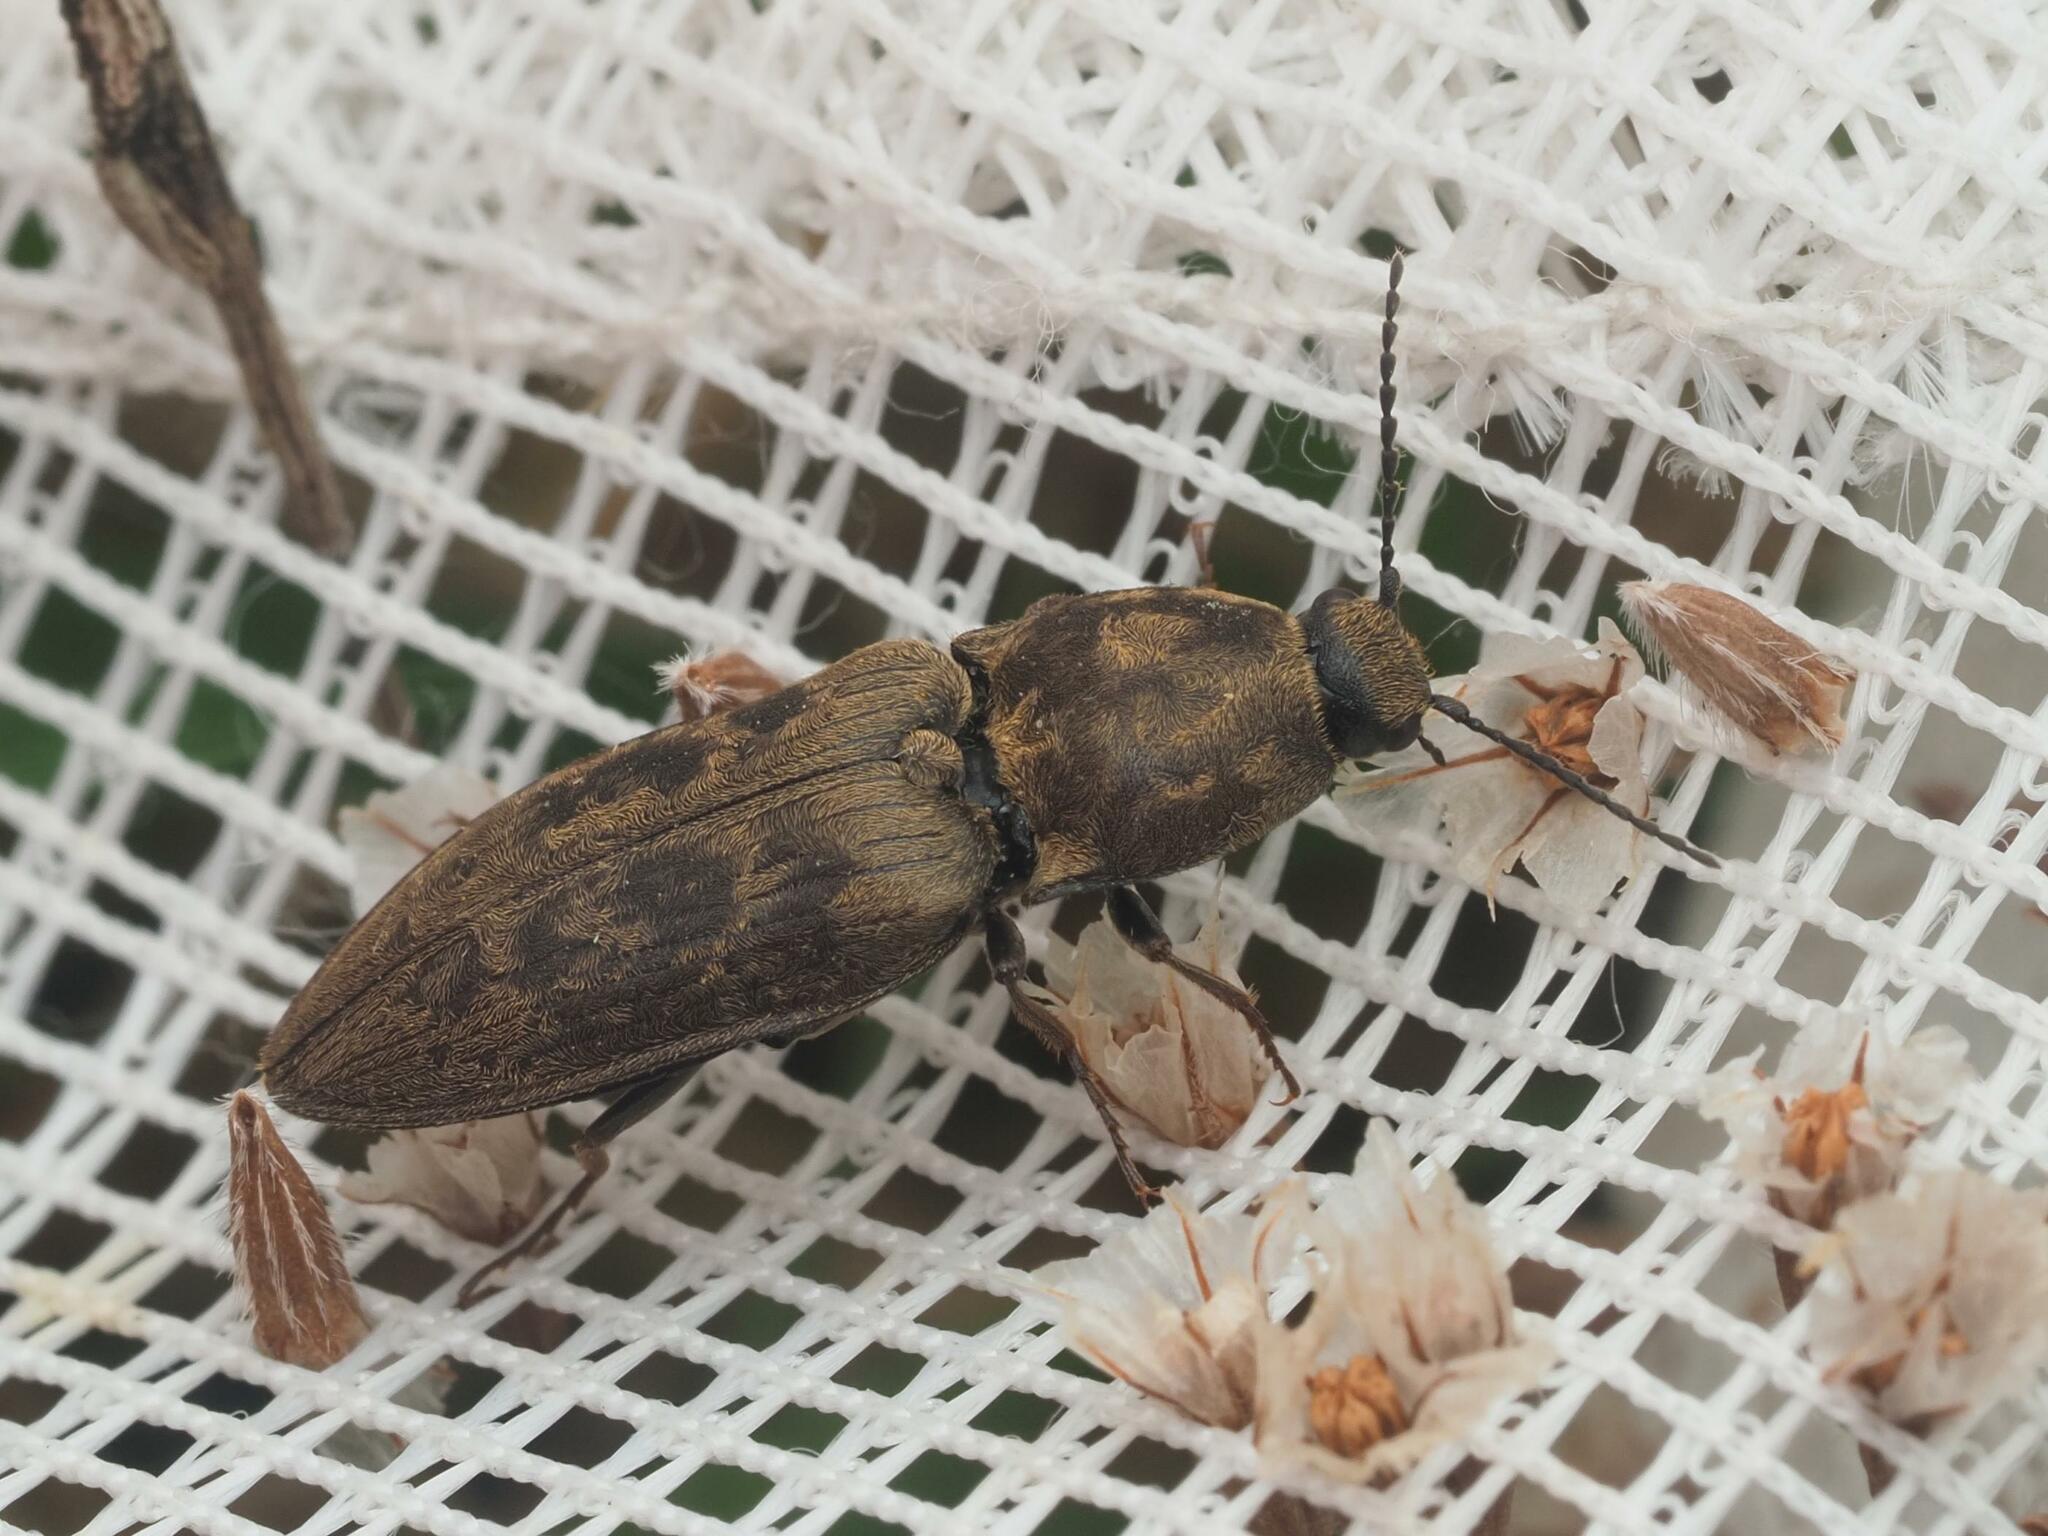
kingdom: Animalia
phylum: Arthropoda
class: Insecta
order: Coleoptera
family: Elateridae
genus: Prosternon
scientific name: Prosternon tessellatum
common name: Chequered click beetle
